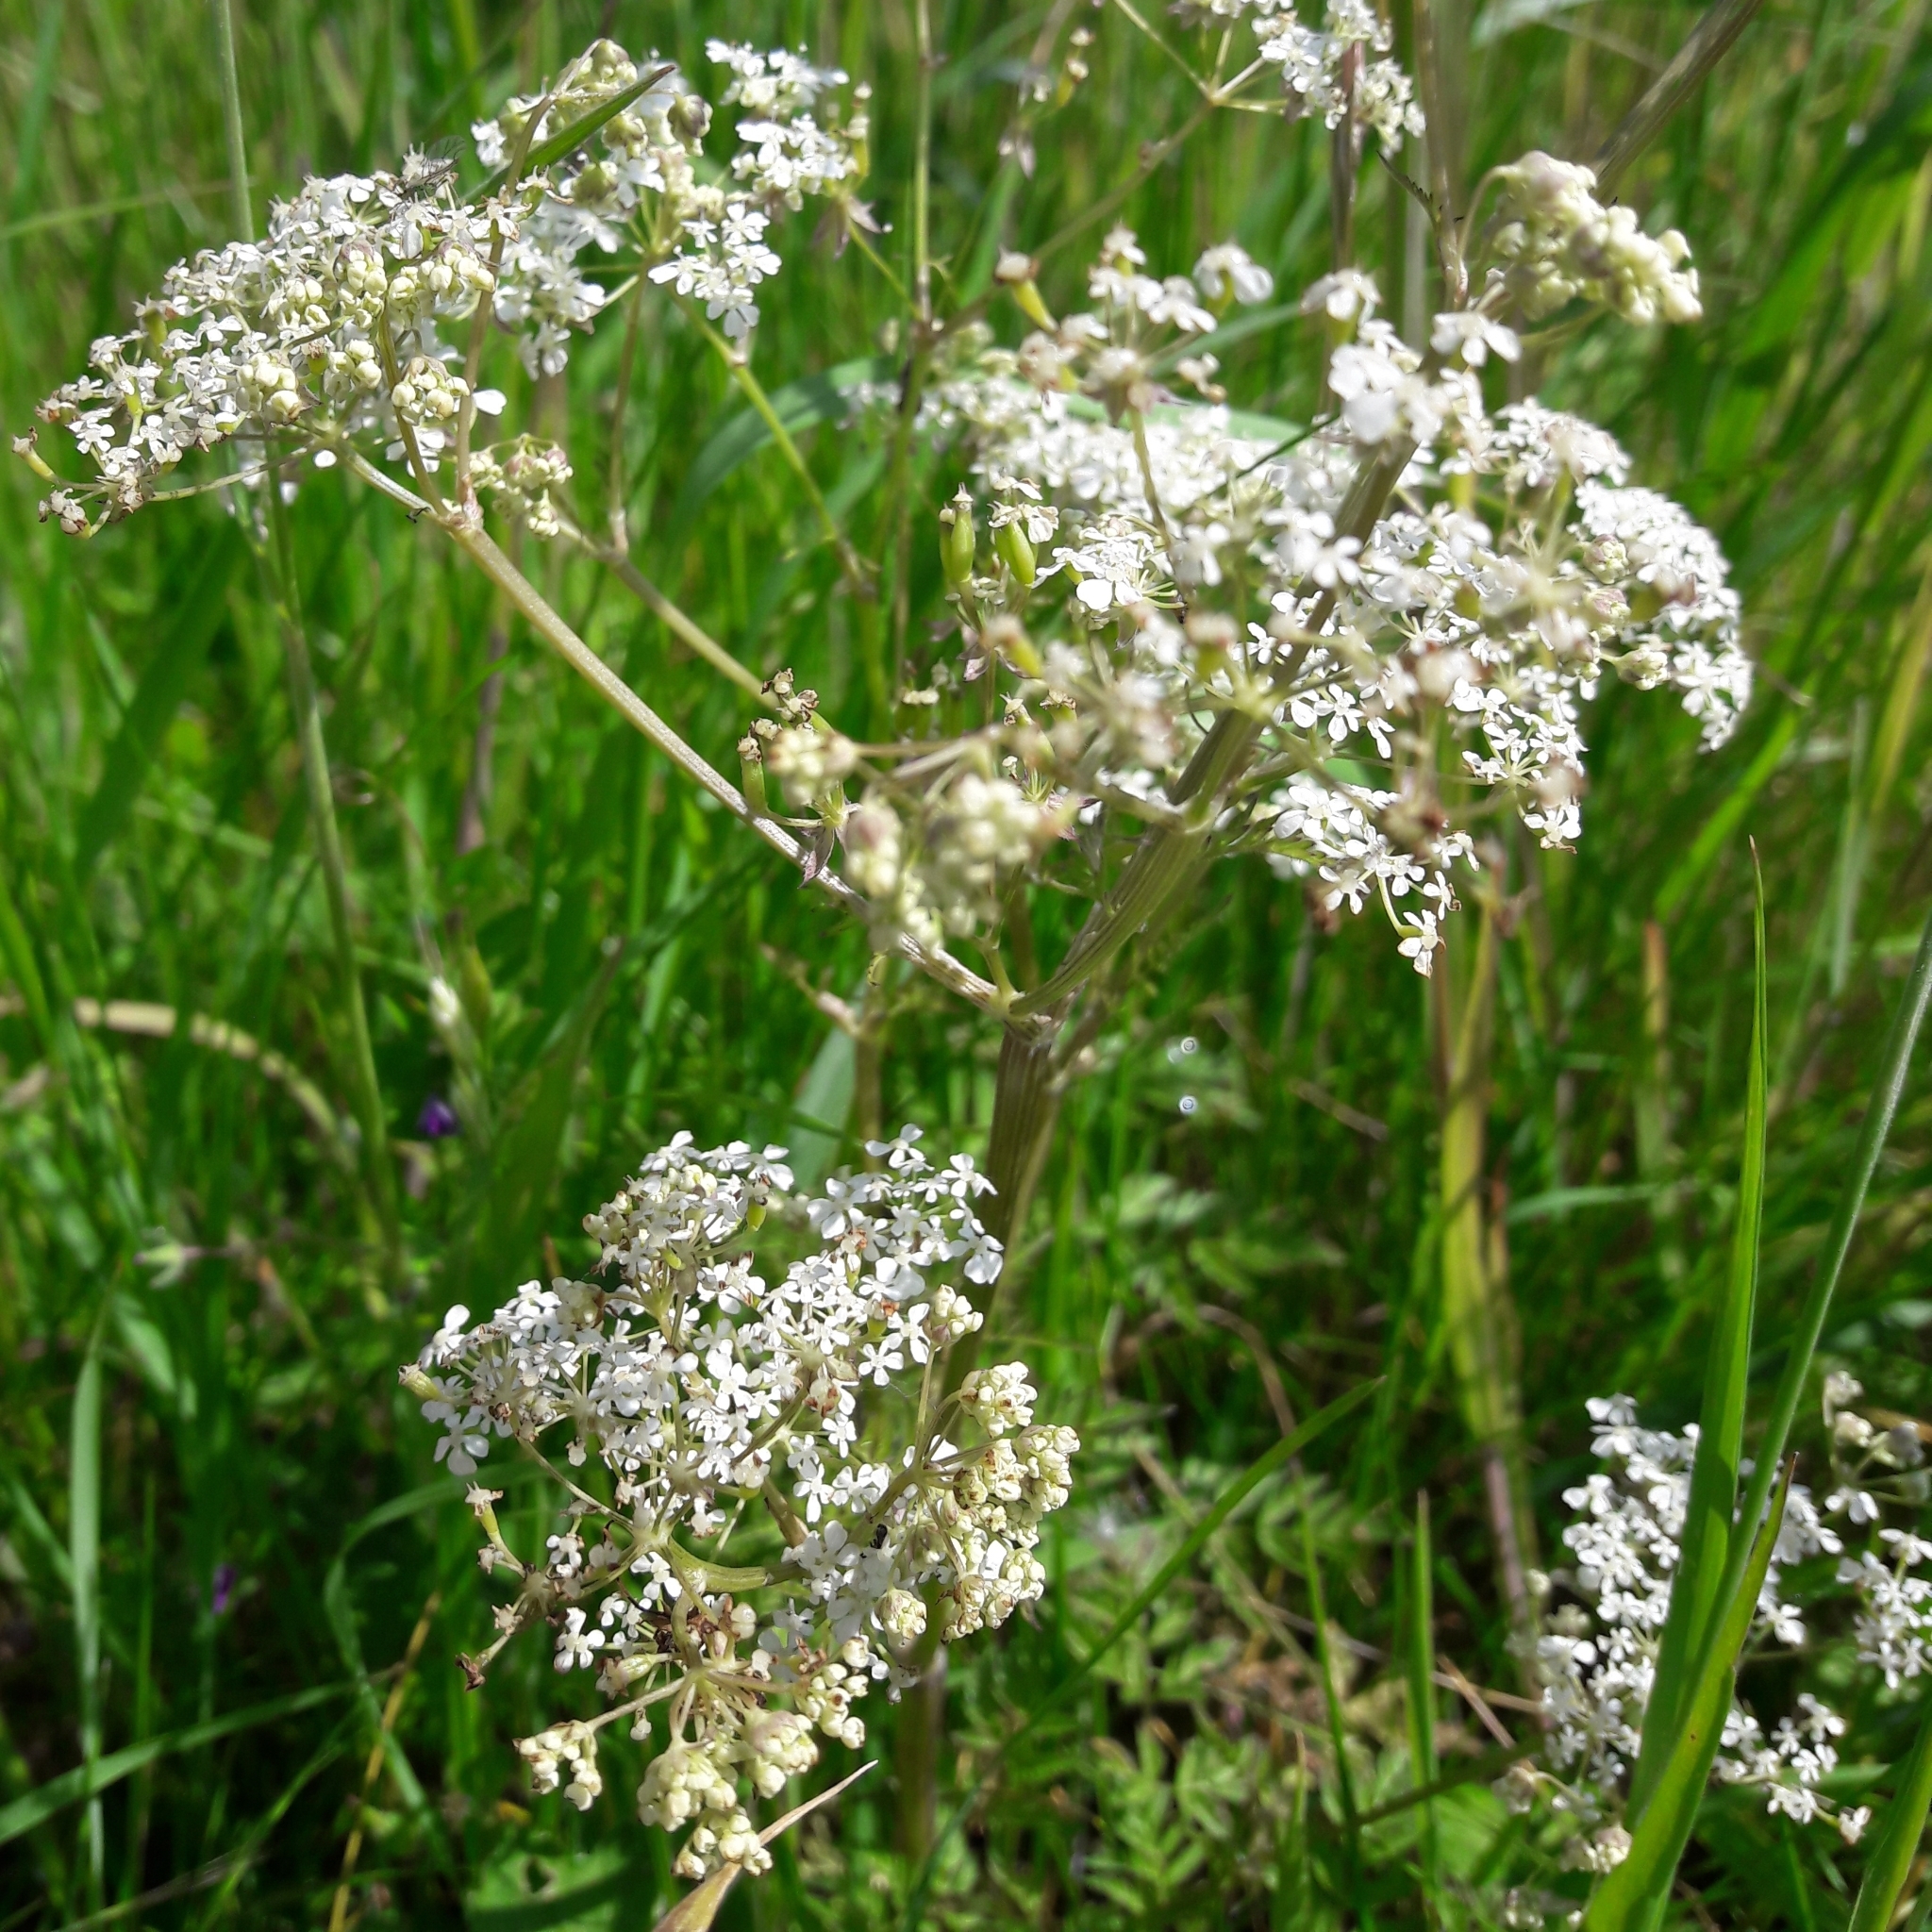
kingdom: Plantae
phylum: Tracheophyta
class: Magnoliopsida
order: Apiales
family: Apiaceae
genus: Anthriscus
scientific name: Anthriscus sylvestris
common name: Cow parsley
